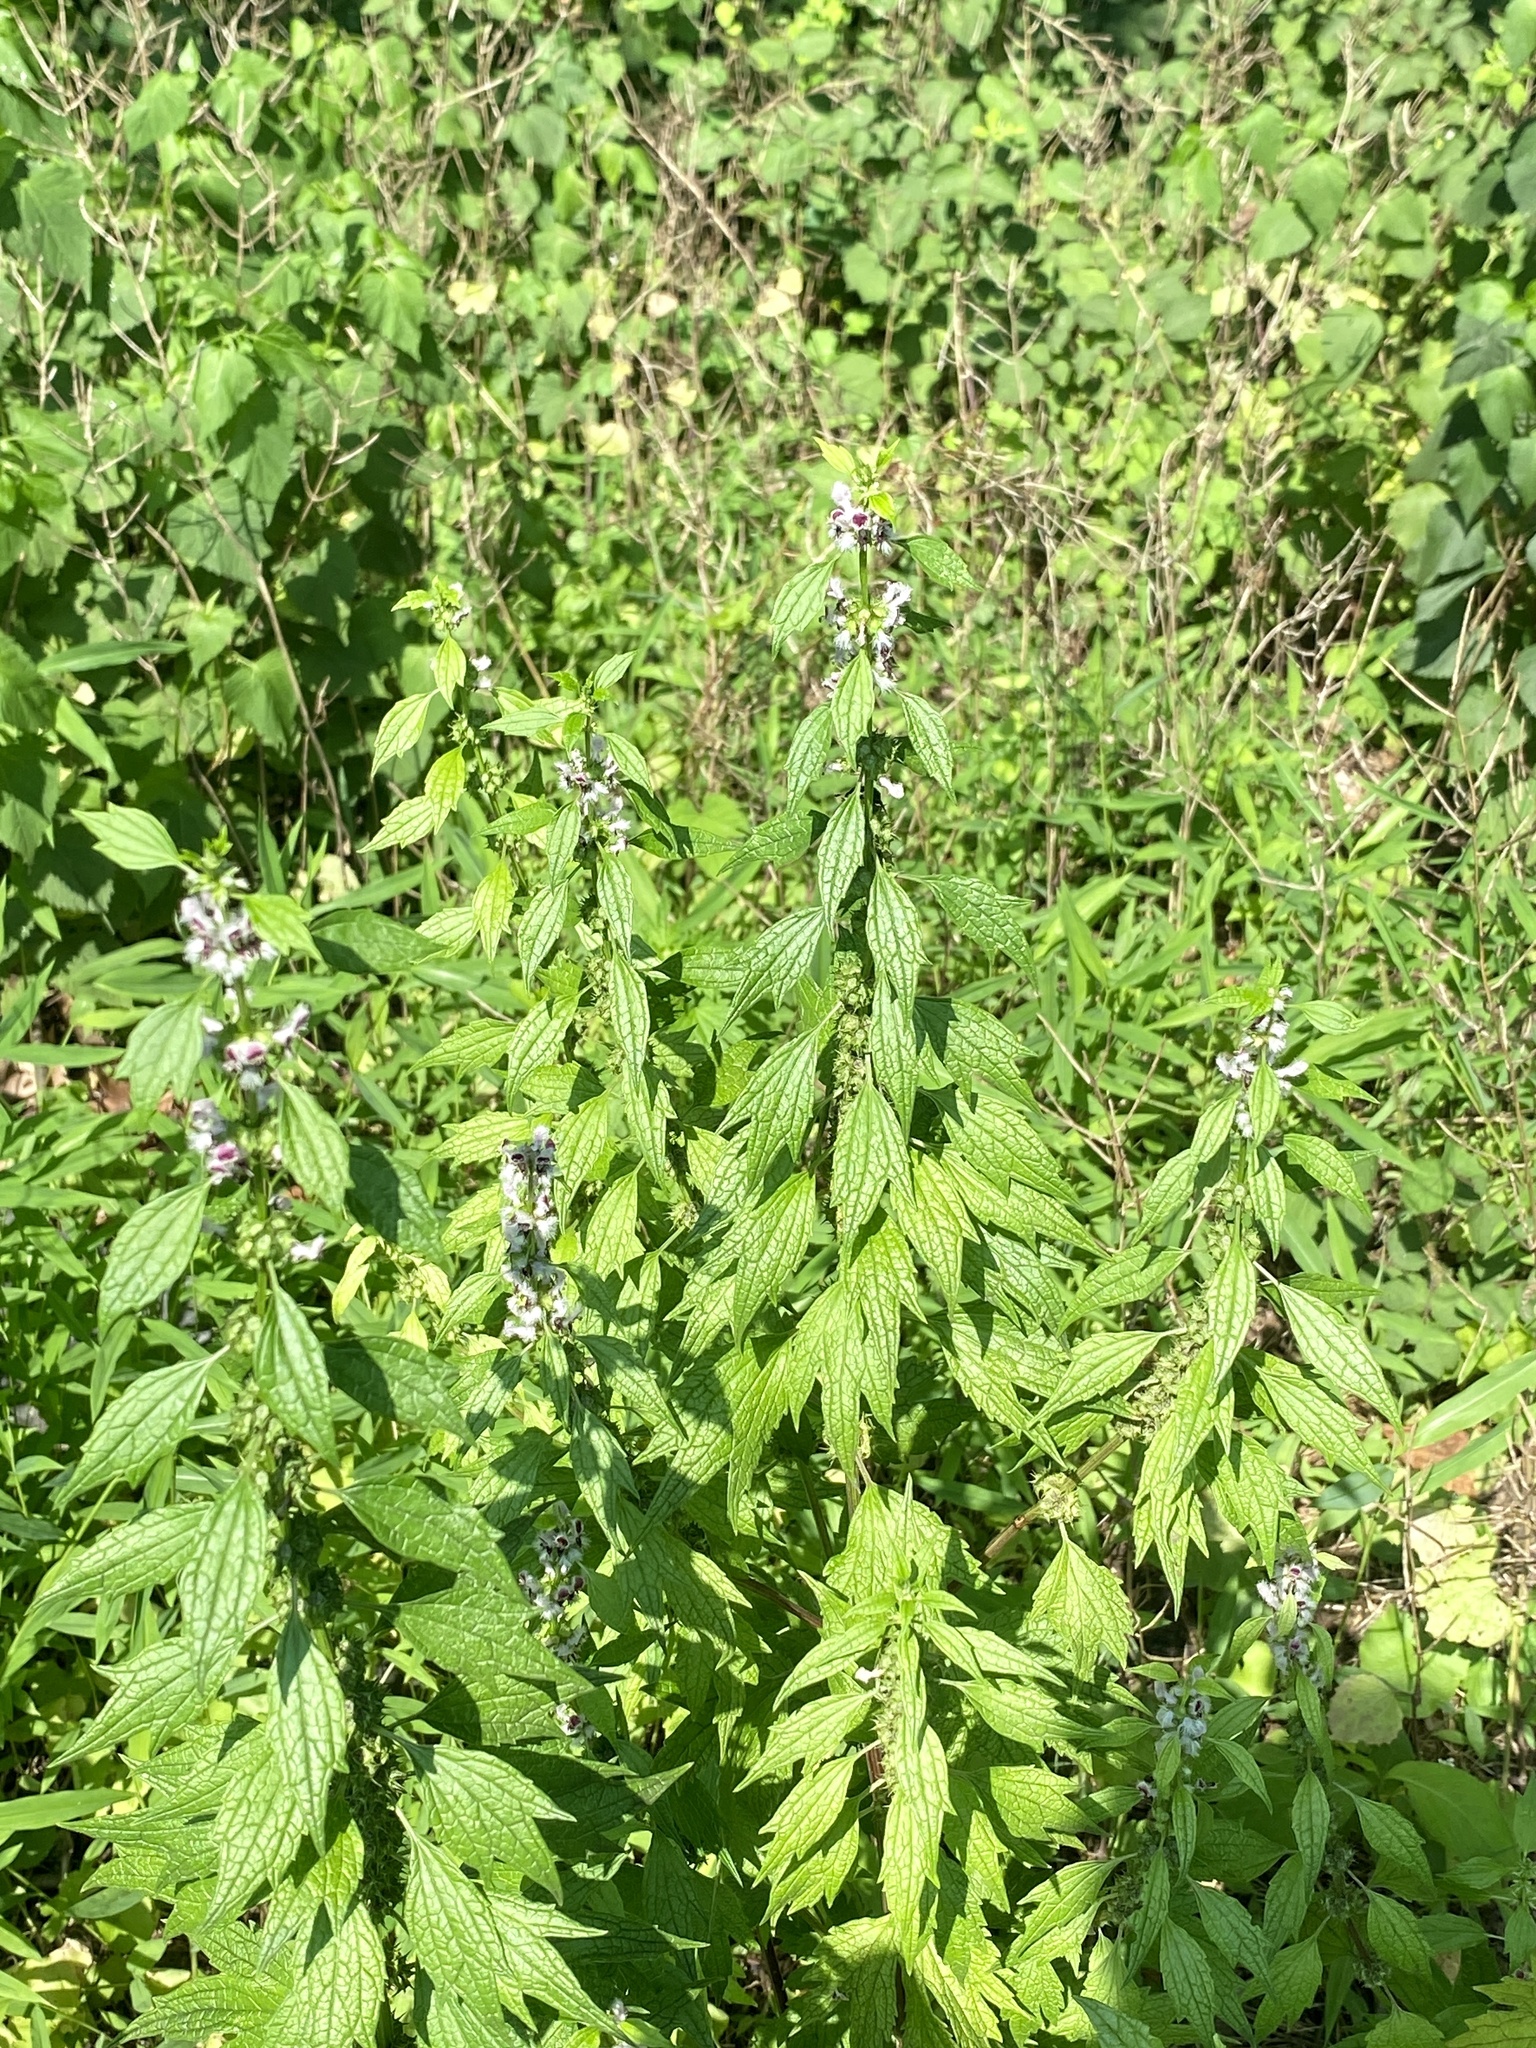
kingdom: Plantae
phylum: Tracheophyta
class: Magnoliopsida
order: Lamiales
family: Lamiaceae
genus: Leonurus
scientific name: Leonurus cardiaca
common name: Motherwort
